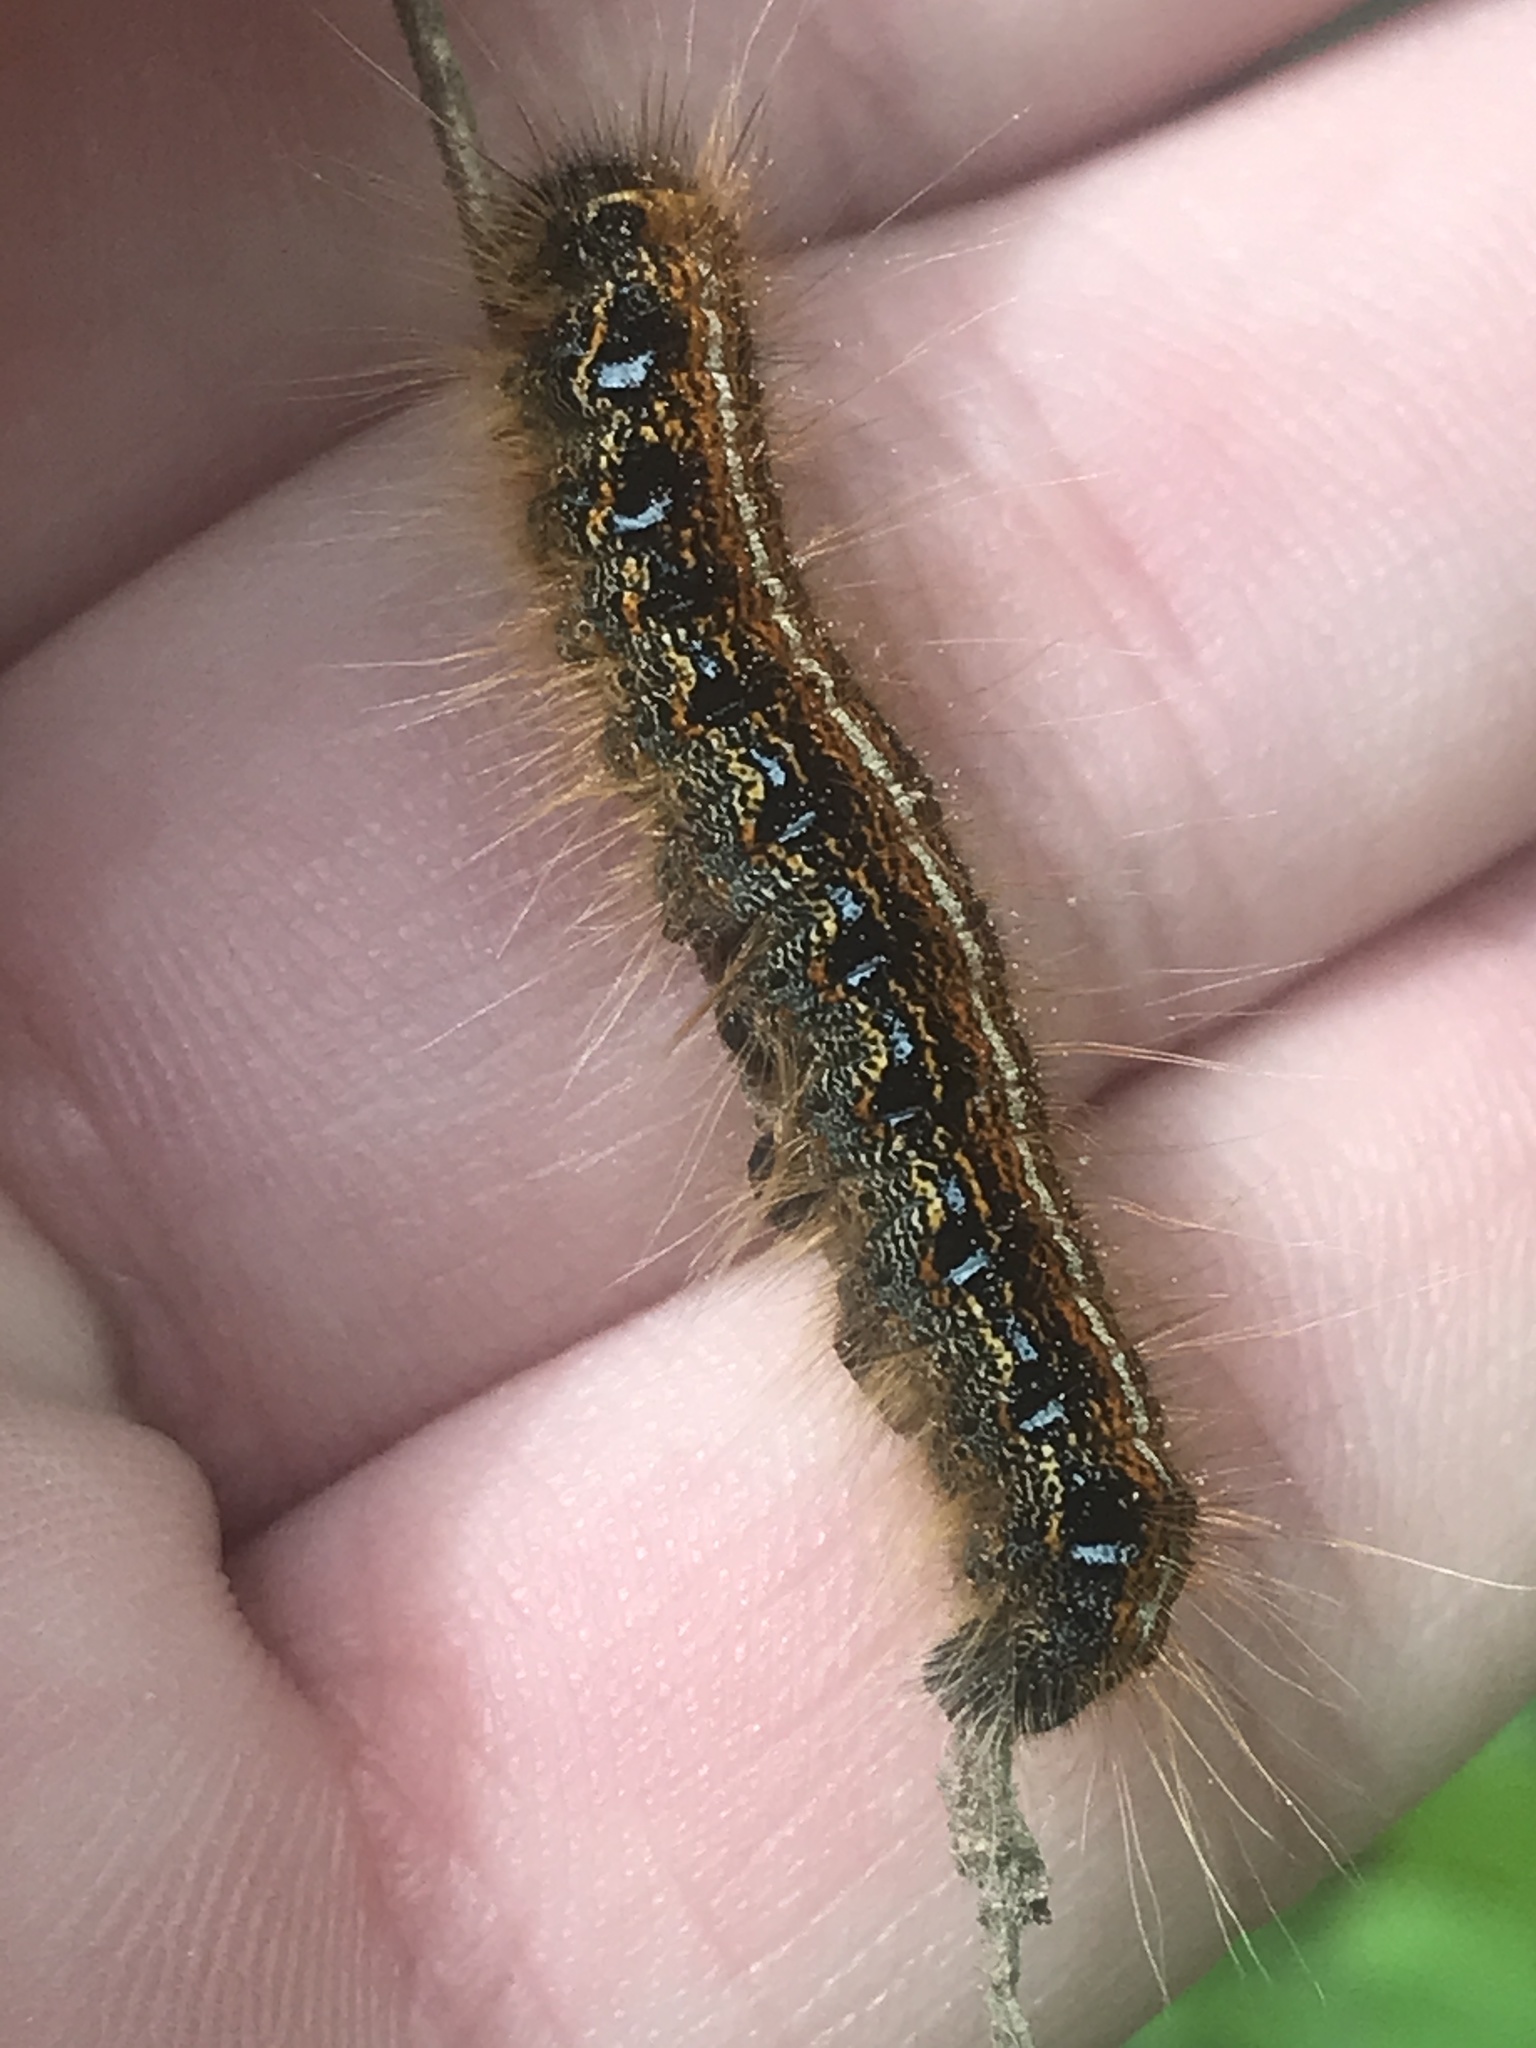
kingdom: Animalia
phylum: Arthropoda
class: Insecta
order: Lepidoptera
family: Lasiocampidae
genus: Malacosoma
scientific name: Malacosoma americana
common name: Eastern tent caterpillar moth
